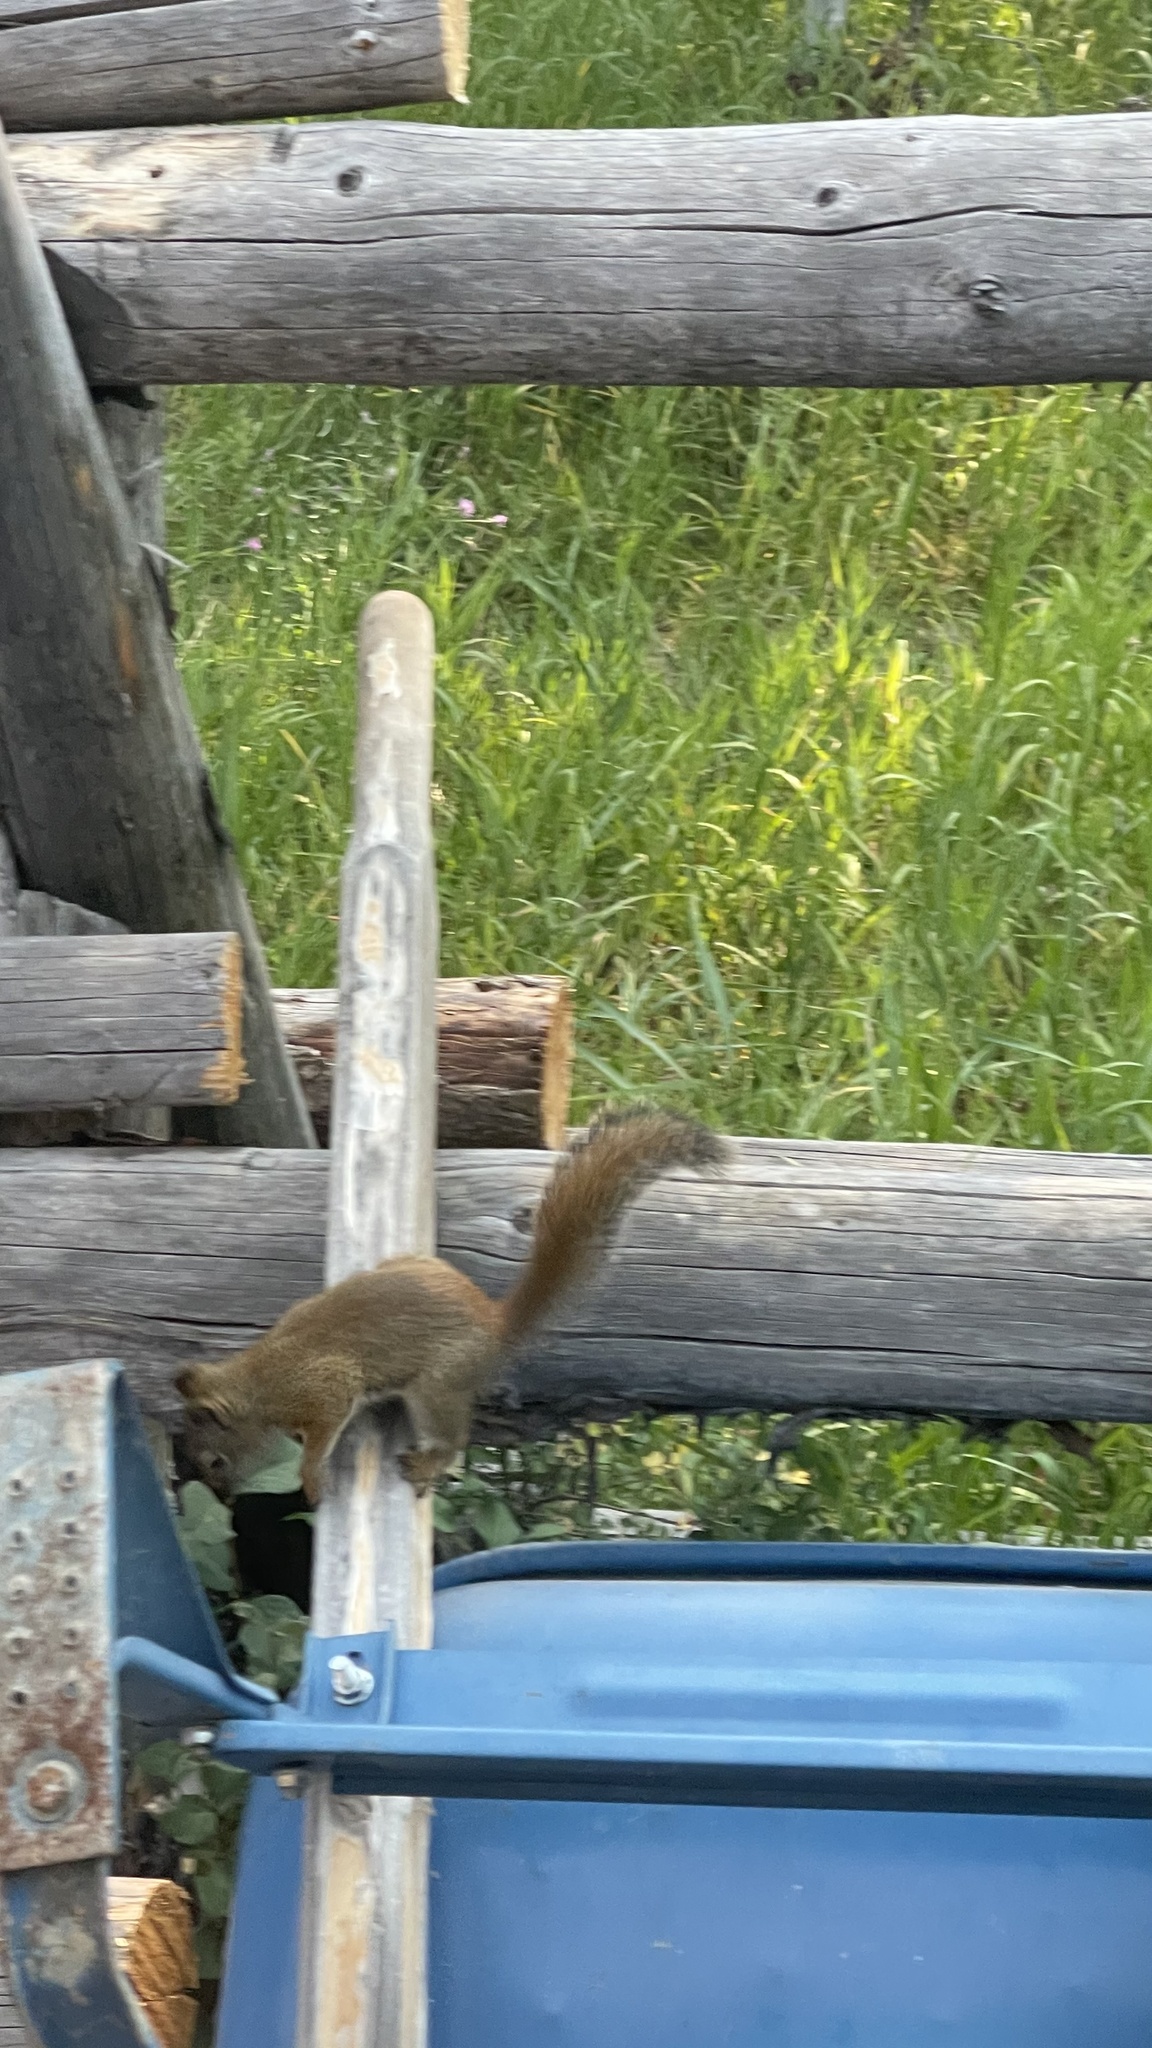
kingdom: Animalia
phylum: Chordata
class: Mammalia
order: Rodentia
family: Sciuridae
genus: Tamiasciurus
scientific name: Tamiasciurus hudsonicus
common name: Red squirrel
